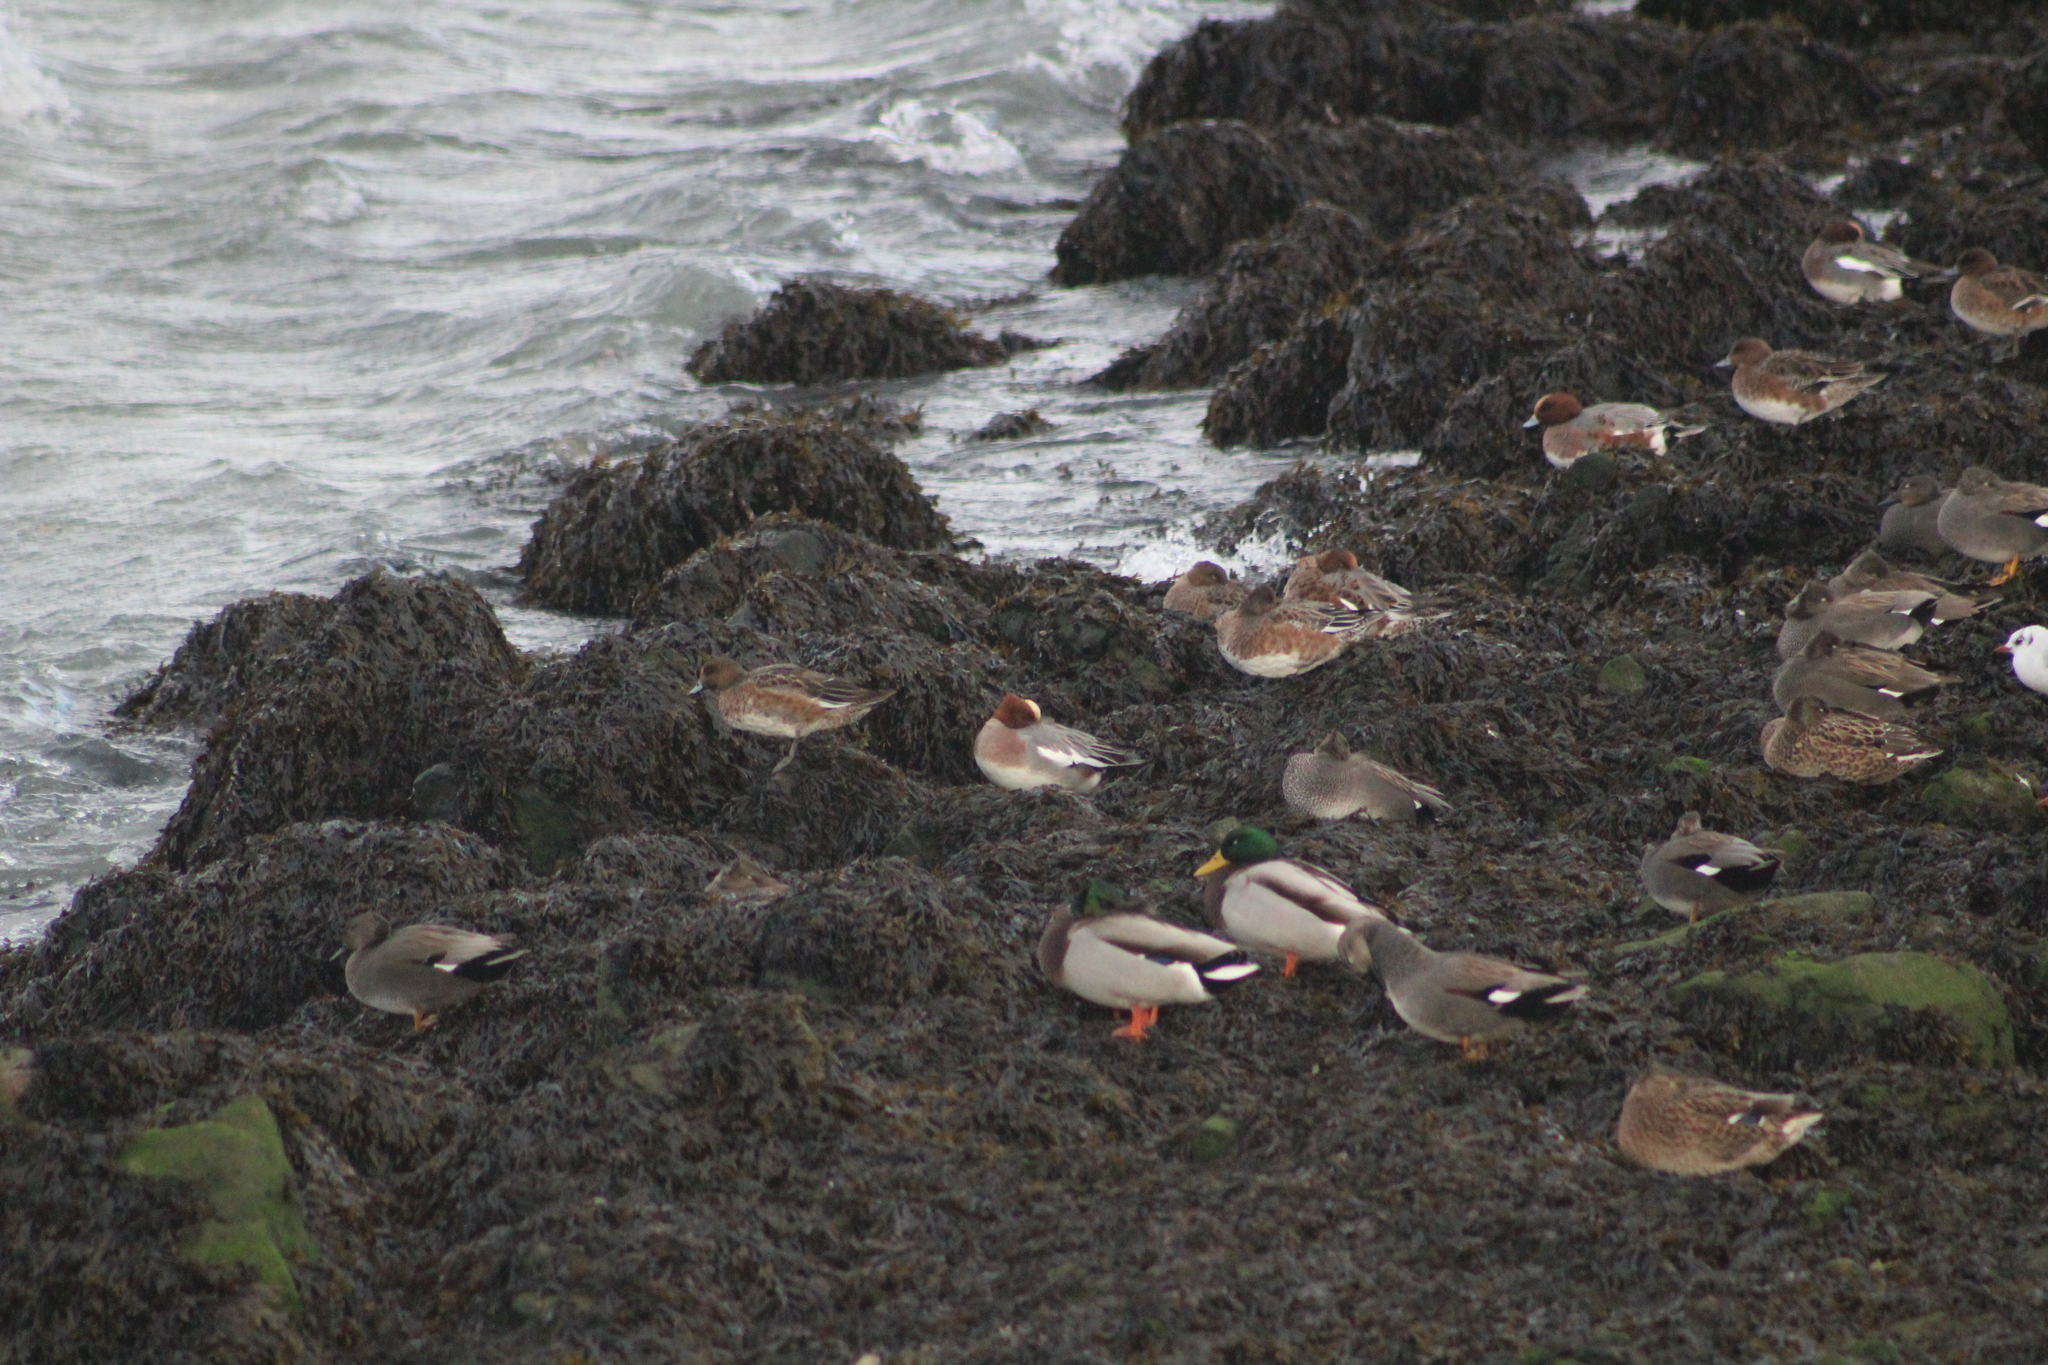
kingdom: Animalia
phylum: Chordata
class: Aves
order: Anseriformes
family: Anatidae
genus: Mareca
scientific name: Mareca penelope
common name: Eurasian wigeon
